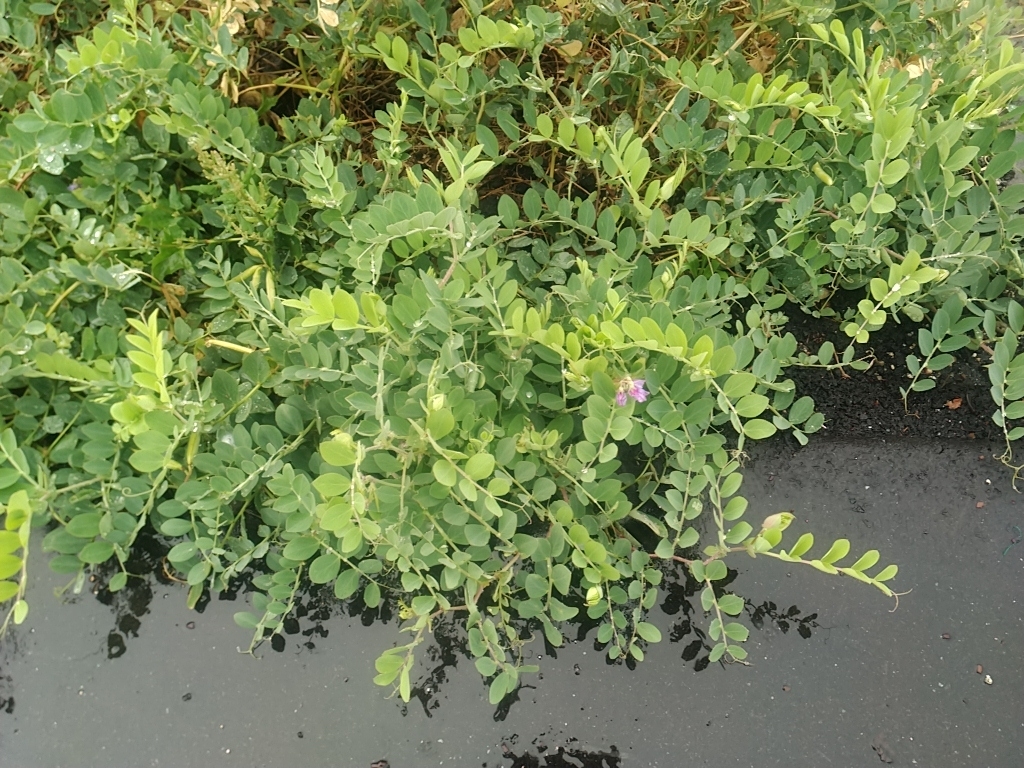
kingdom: Plantae
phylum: Tracheophyta
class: Magnoliopsida
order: Fabales
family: Fabaceae
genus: Lathyrus
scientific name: Lathyrus japonicus
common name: Sea pea
